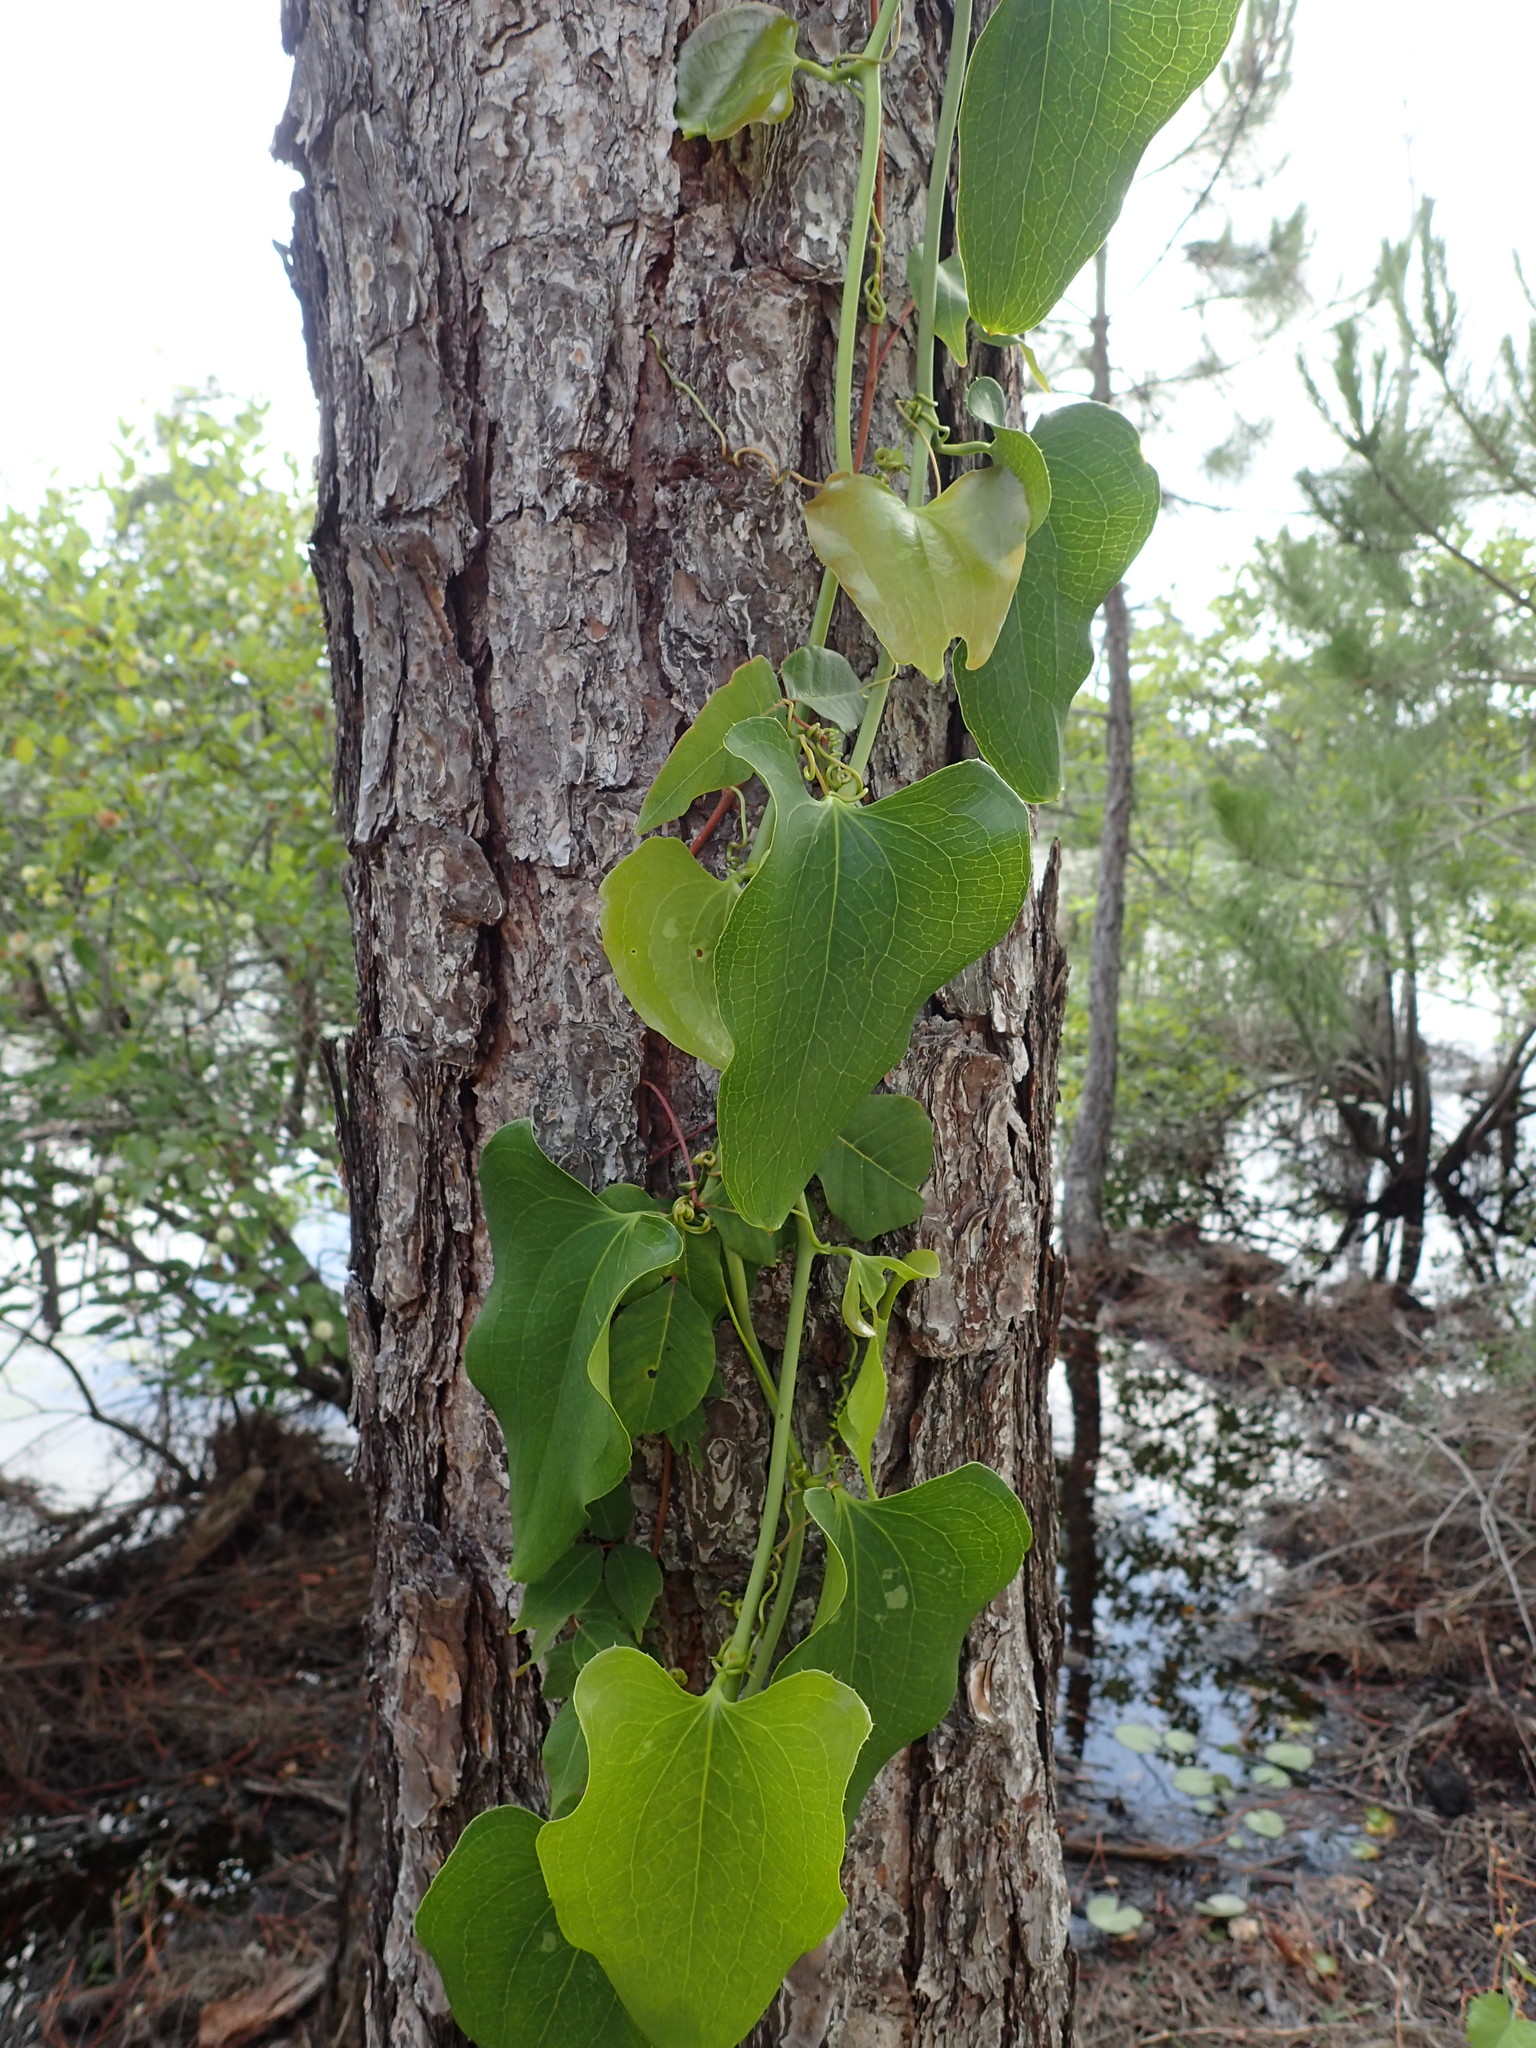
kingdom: Plantae
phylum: Tracheophyta
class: Liliopsida
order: Liliales
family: Smilacaceae
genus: Smilax
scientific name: Smilax bona-nox
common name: Catbrier
